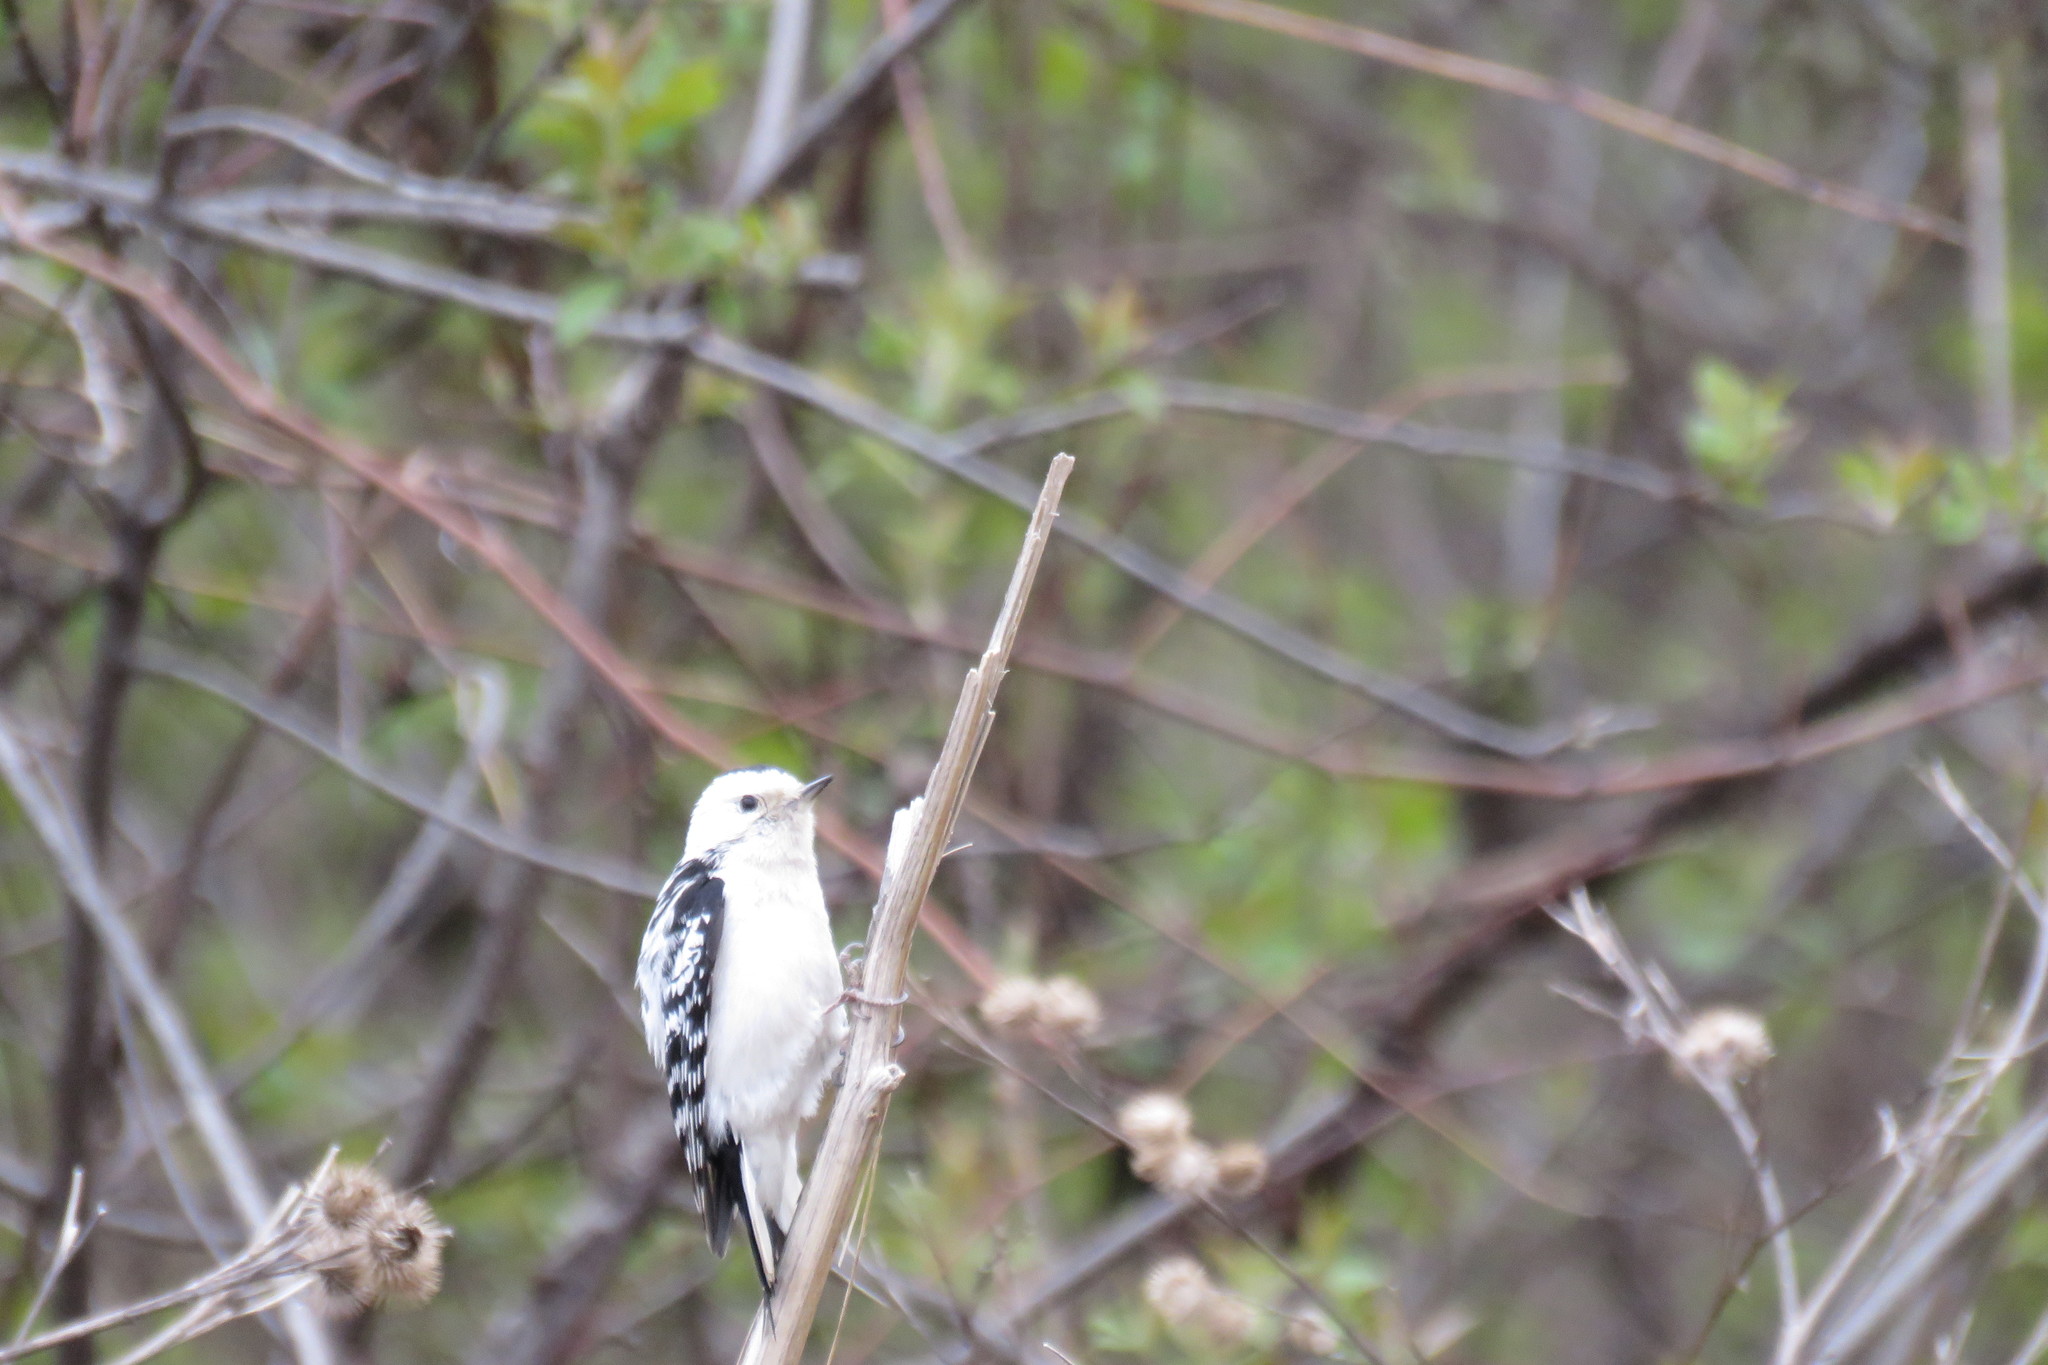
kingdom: Animalia
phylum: Chordata
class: Aves
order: Piciformes
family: Picidae
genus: Dryobates
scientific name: Dryobates pubescens
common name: Downy woodpecker
